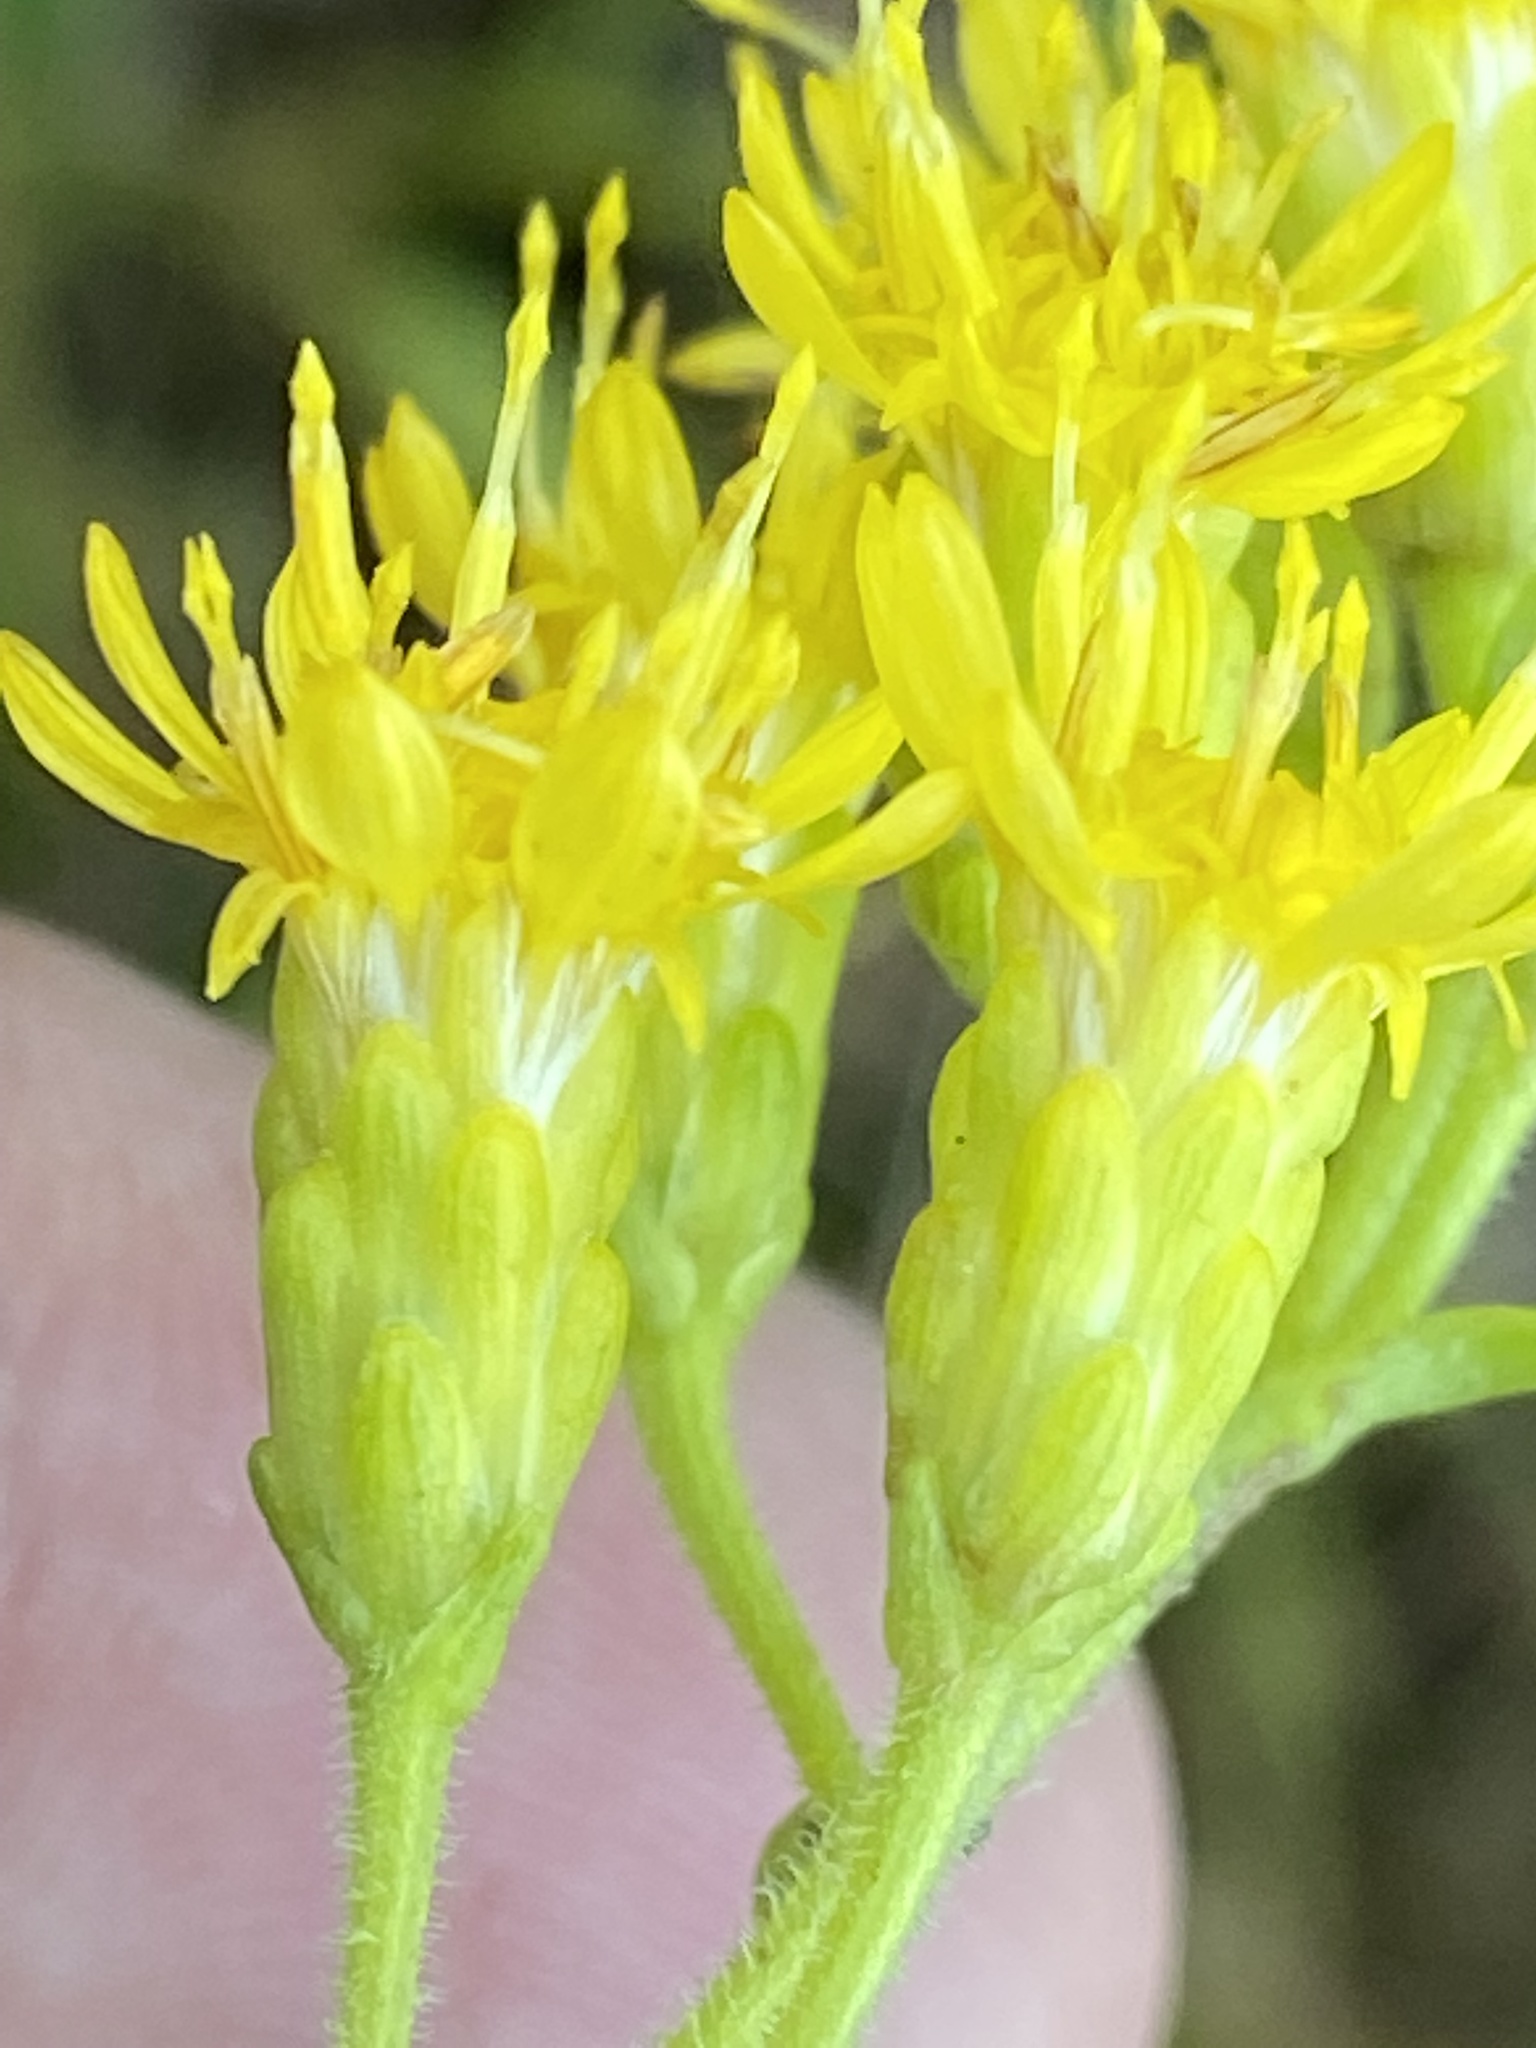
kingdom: Plantae
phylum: Tracheophyta
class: Magnoliopsida
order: Asterales
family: Asteraceae
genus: Solidago
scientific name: Solidago rigida
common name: Rigid goldenrod
